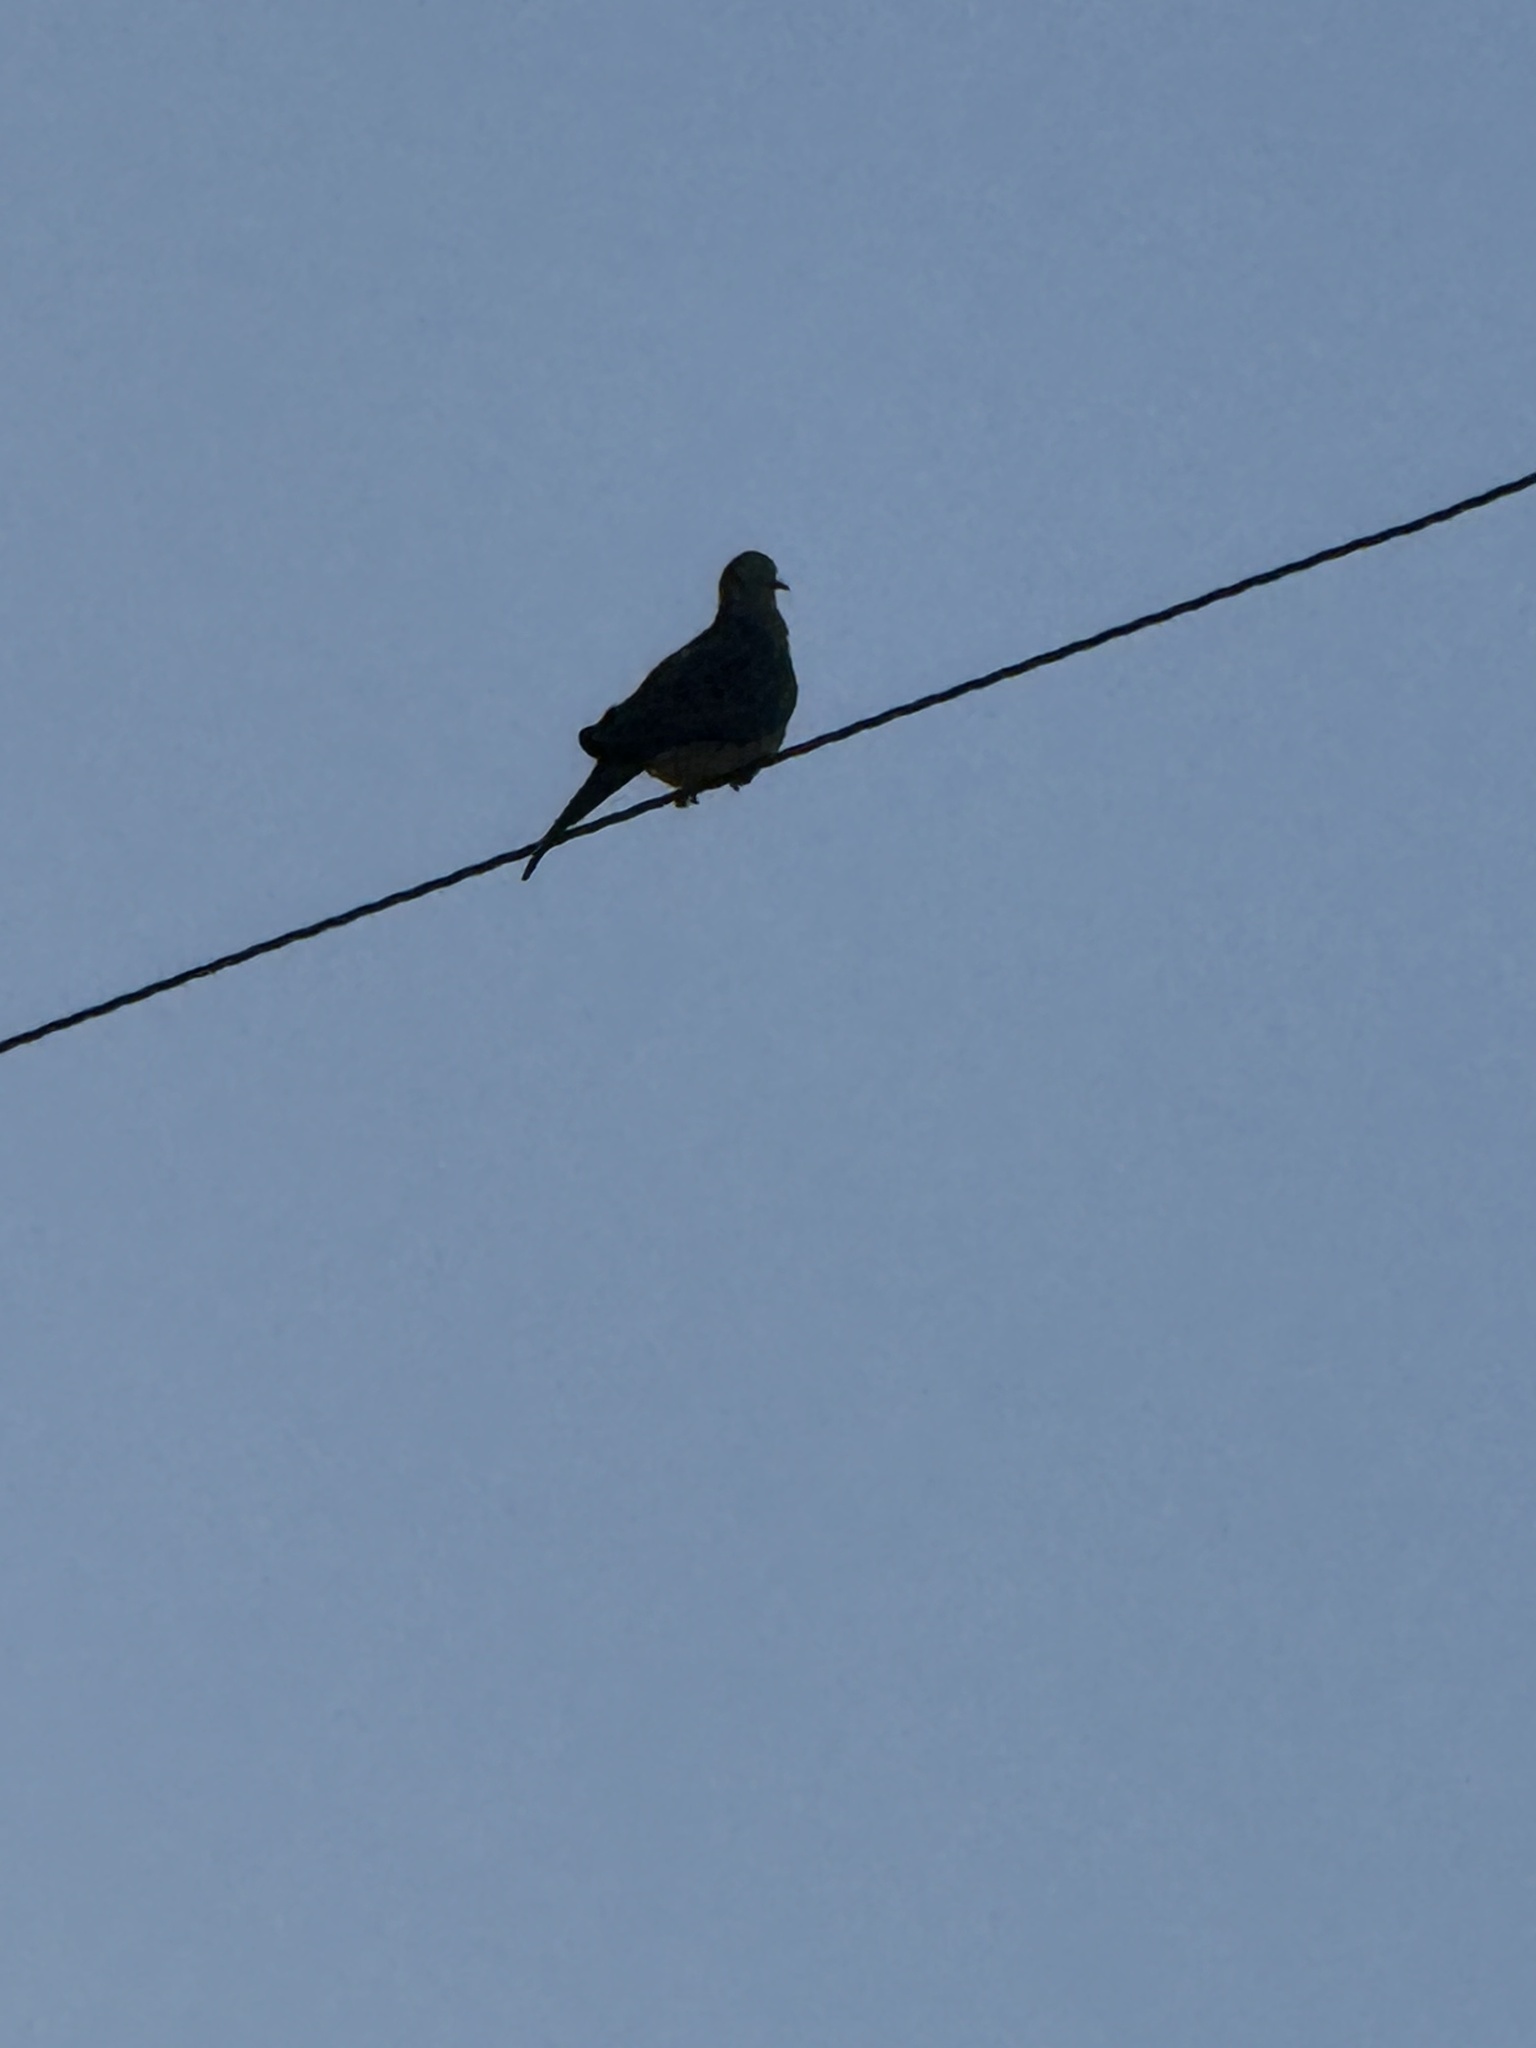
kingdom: Animalia
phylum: Chordata
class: Aves
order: Columbiformes
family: Columbidae
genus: Zenaida
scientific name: Zenaida macroura
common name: Mourning dove
